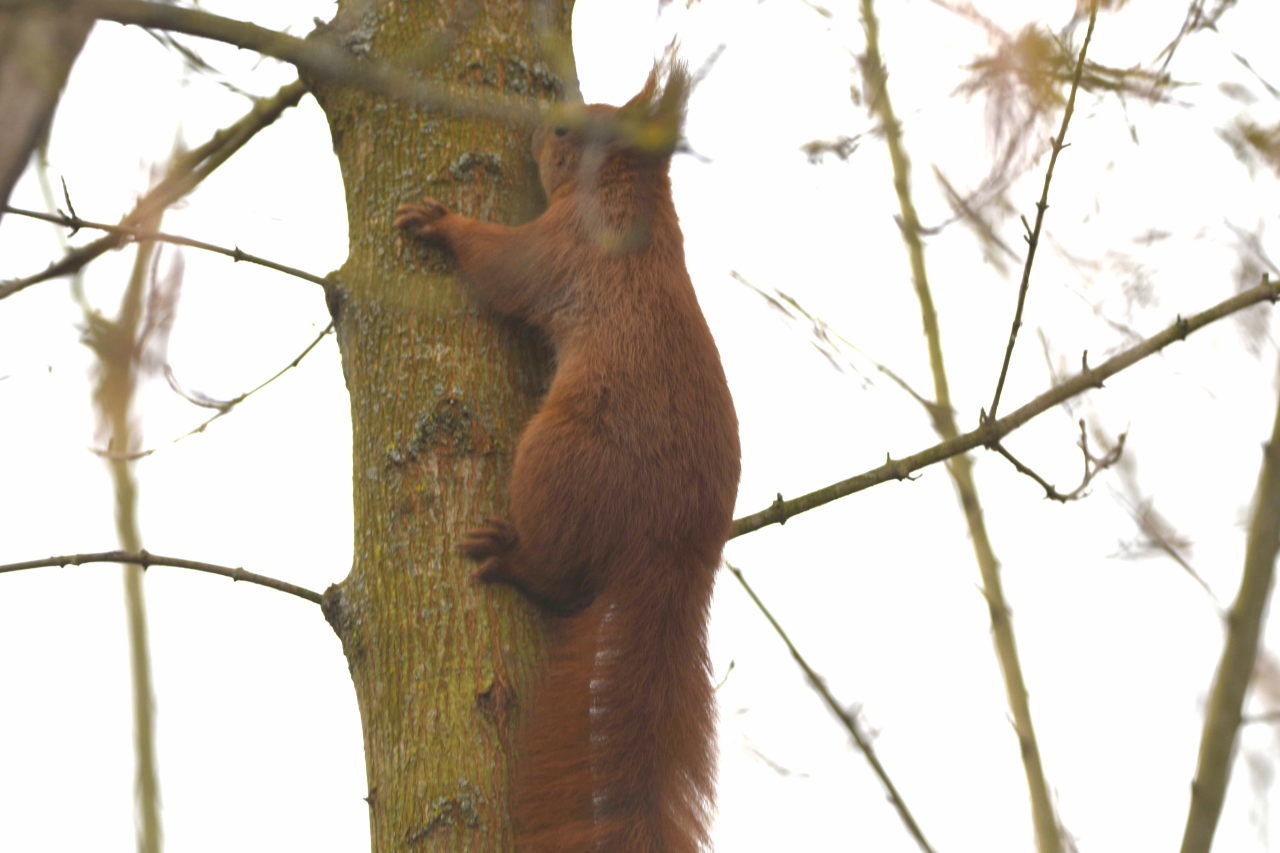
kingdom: Animalia
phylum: Chordata
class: Mammalia
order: Rodentia
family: Sciuridae
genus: Sciurus
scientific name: Sciurus vulgaris
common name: Eurasian red squirrel
